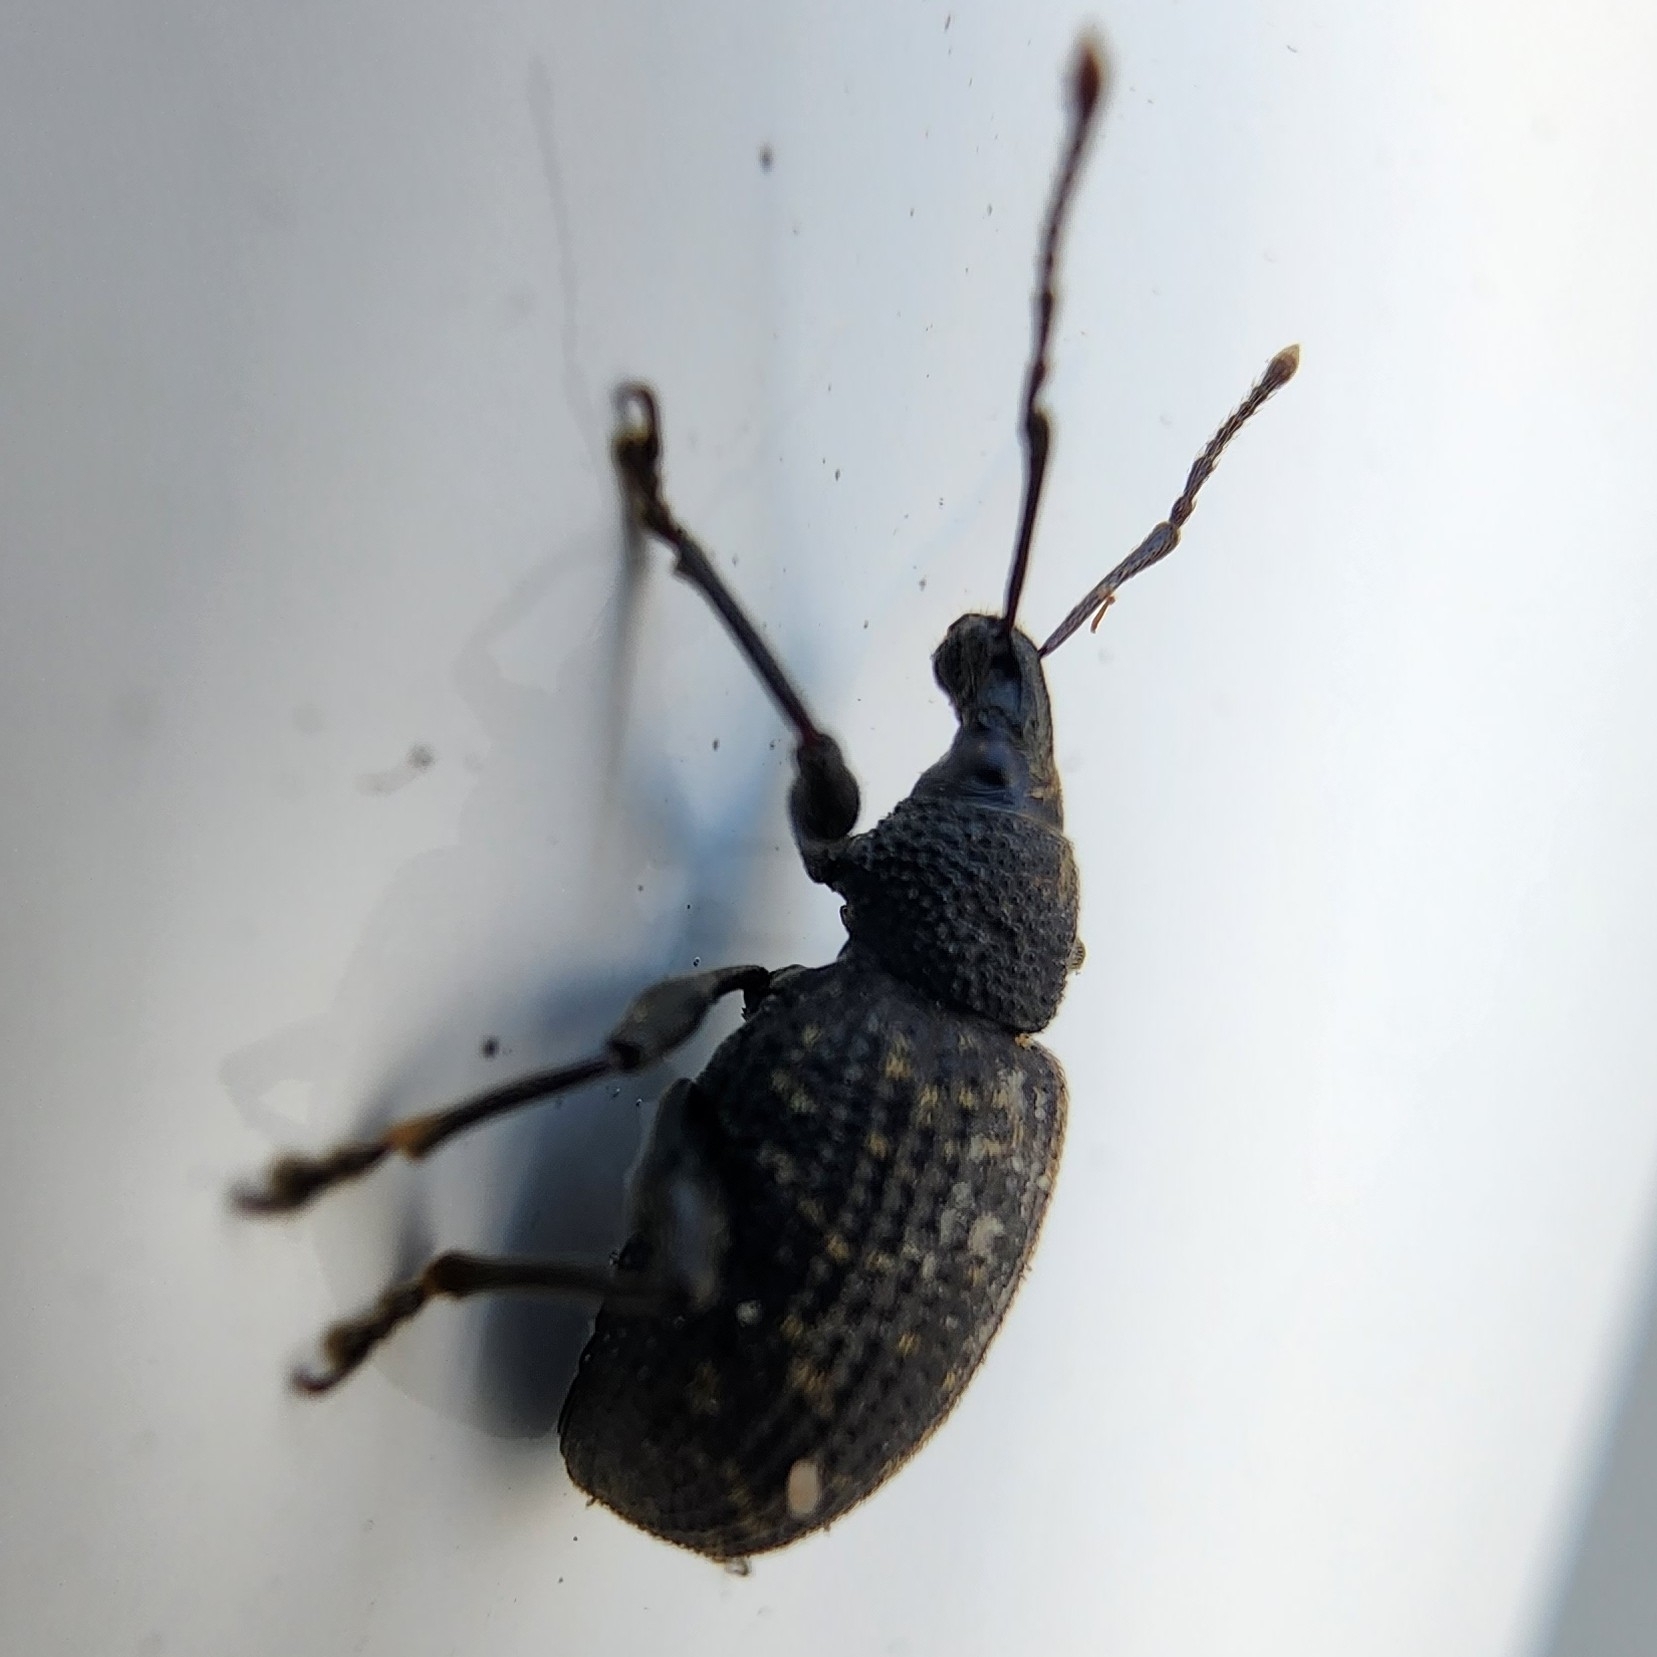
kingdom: Animalia
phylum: Arthropoda
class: Insecta
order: Coleoptera
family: Curculionidae
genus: Otiorhynchus
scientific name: Otiorhynchus sulcatus
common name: Black vine weevil
